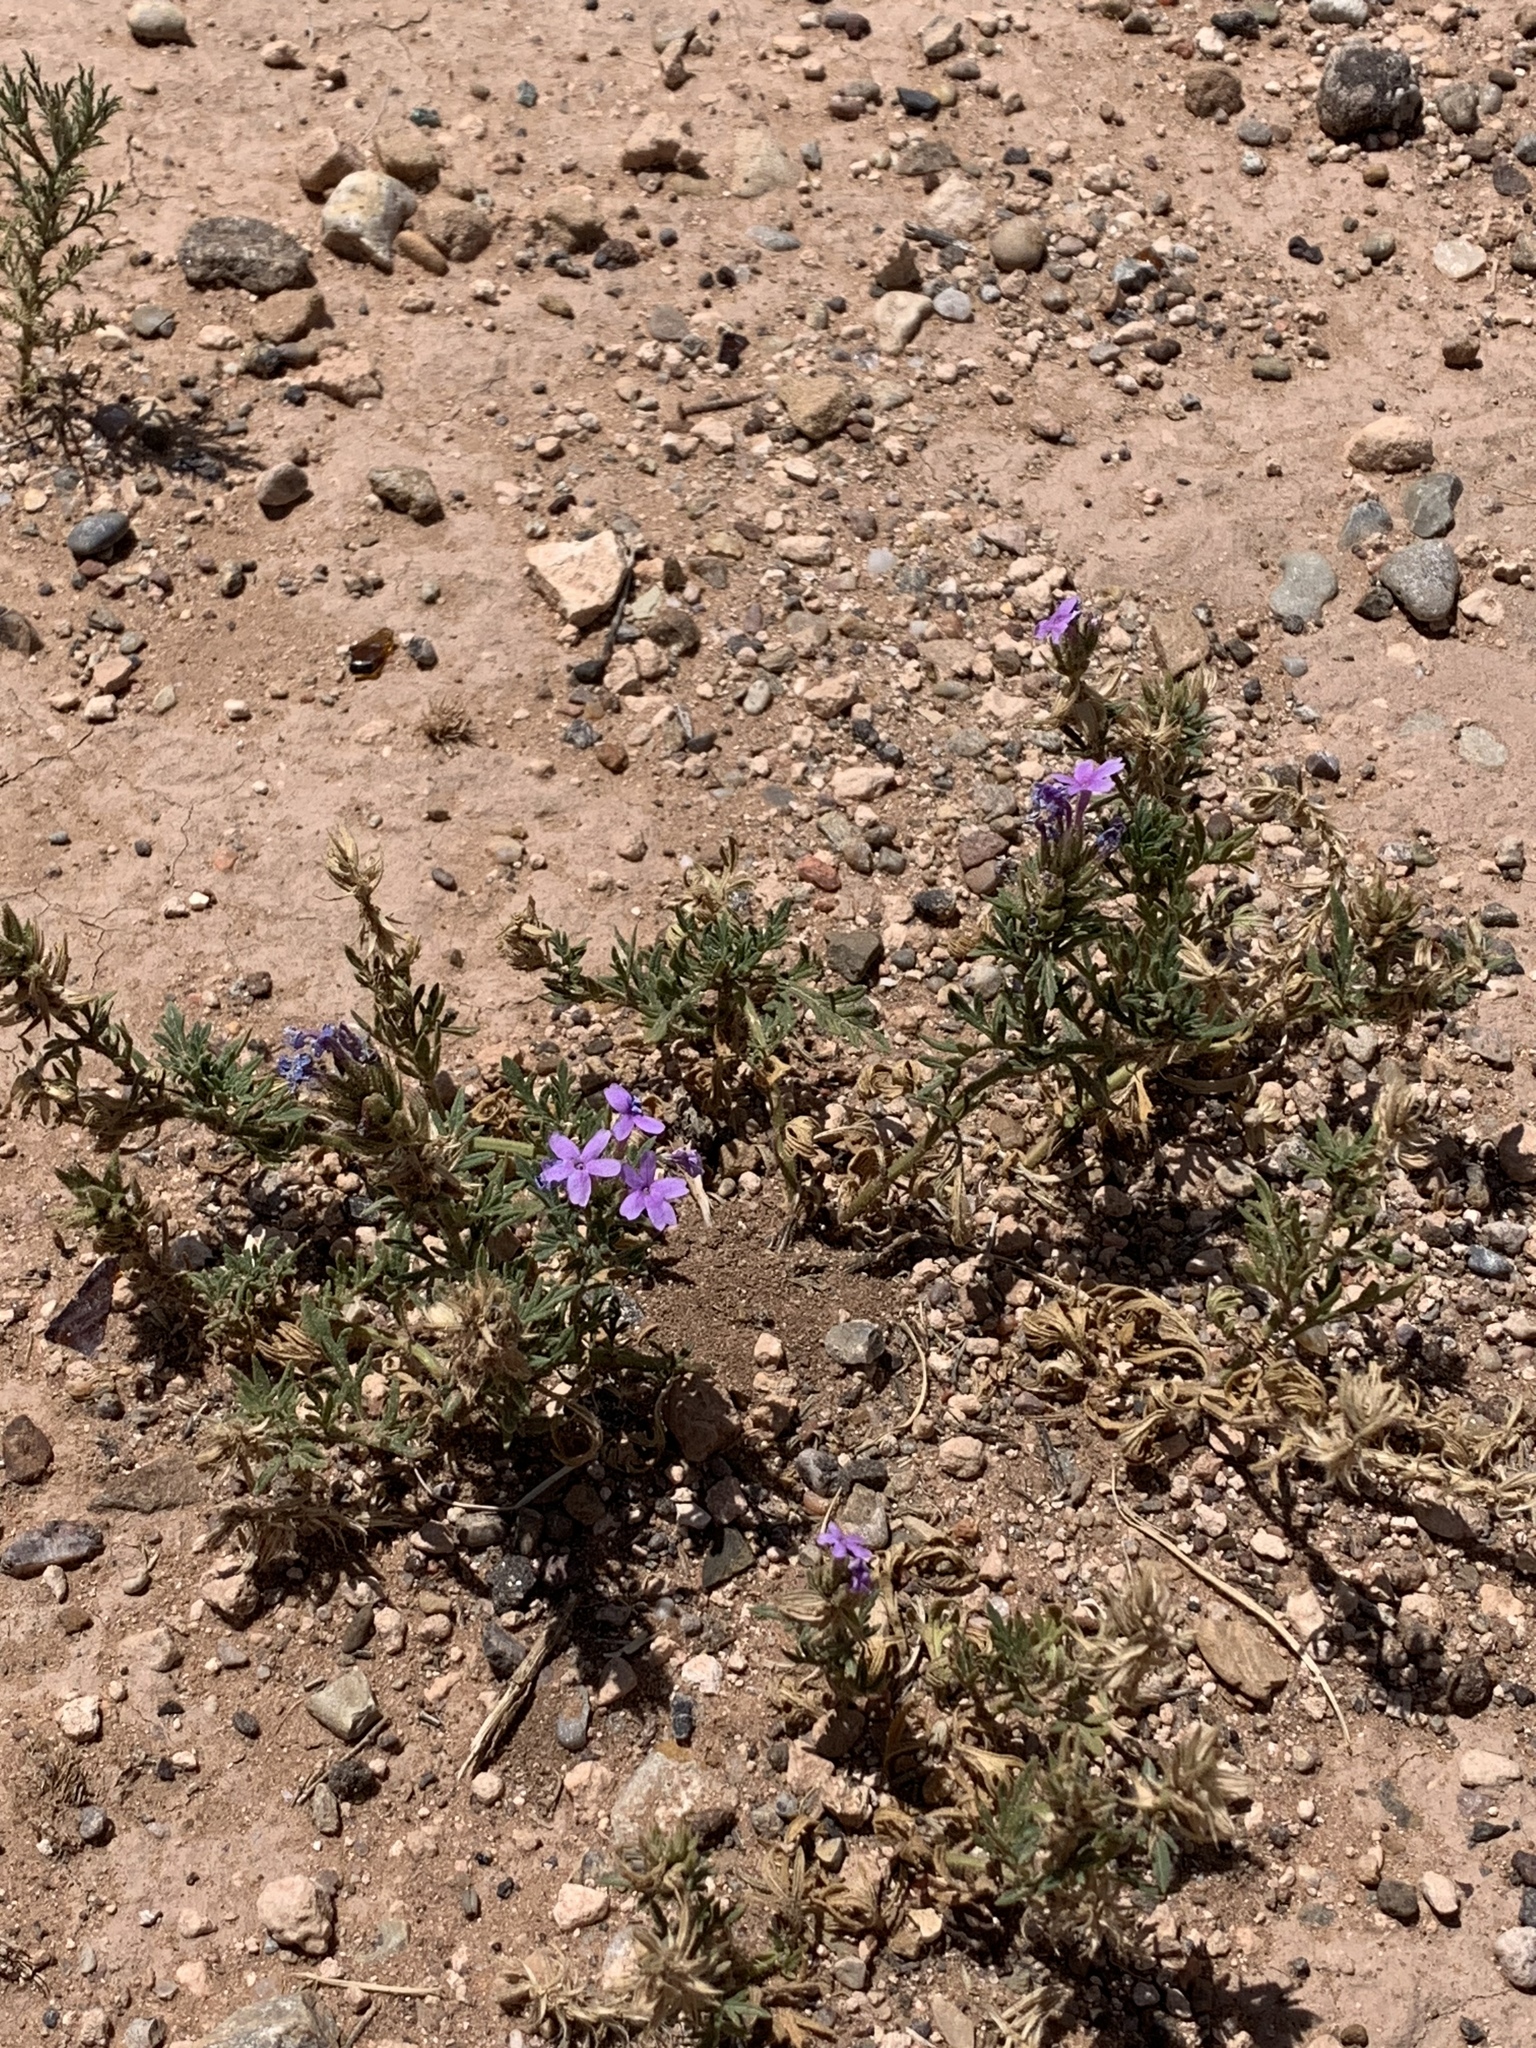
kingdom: Plantae
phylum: Tracheophyta
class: Magnoliopsida
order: Lamiales
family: Verbenaceae
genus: Verbena
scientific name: Verbena bipinnatifida
